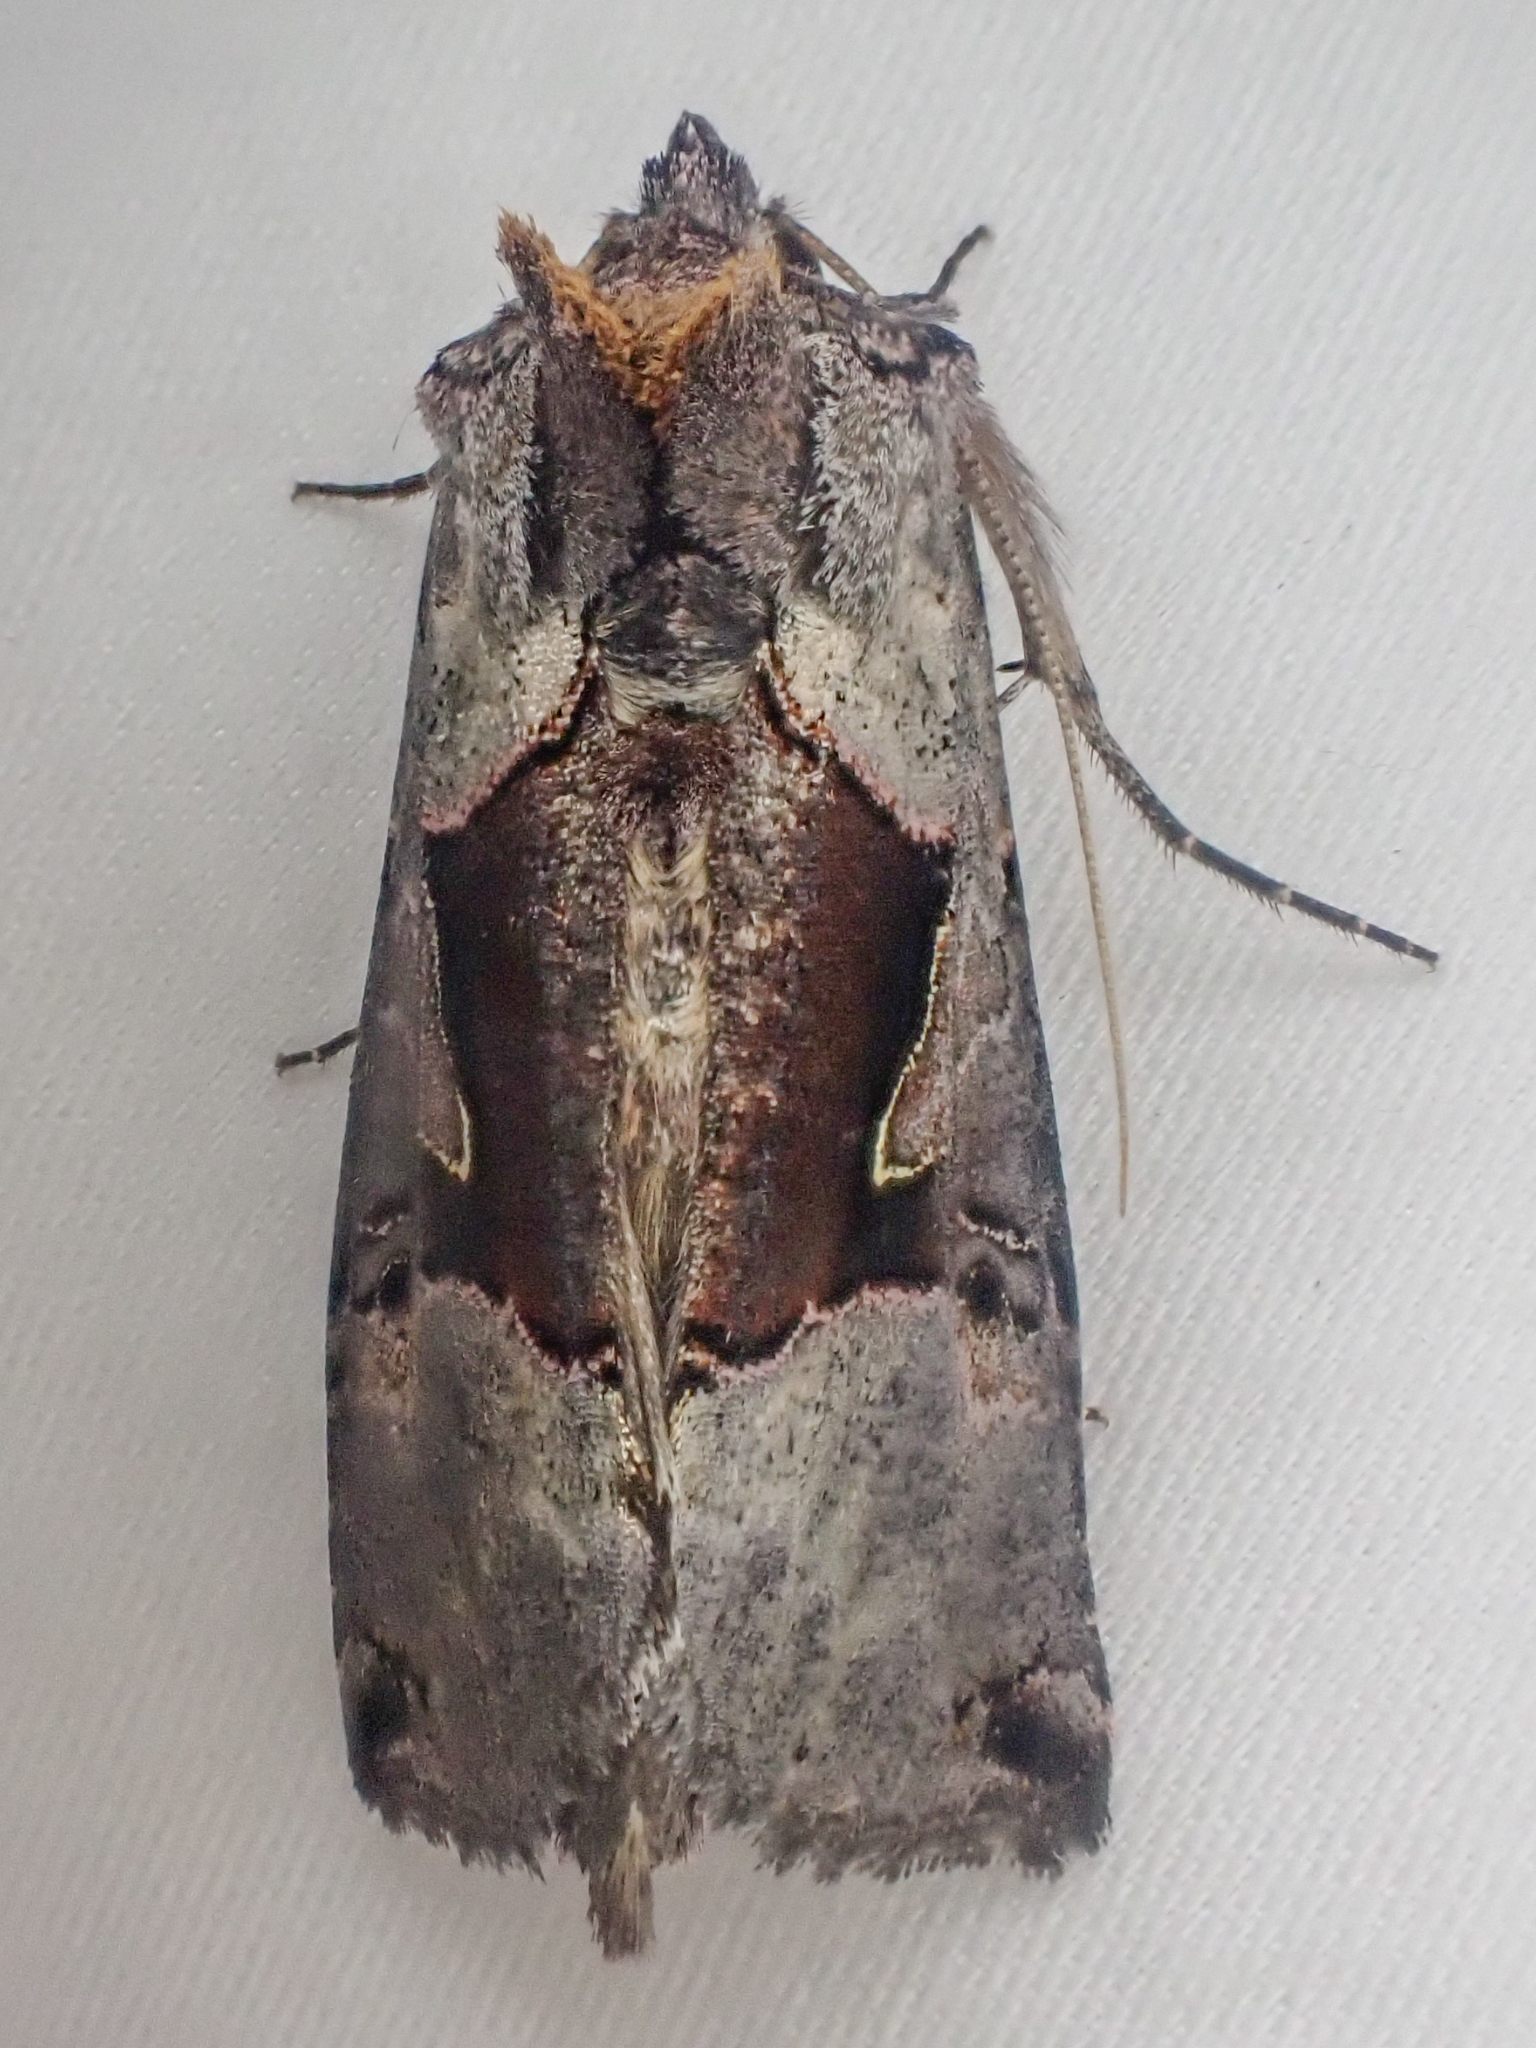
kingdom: Animalia
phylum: Arthropoda
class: Insecta
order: Lepidoptera
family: Noctuidae
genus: Autographa
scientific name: Autographa ampla
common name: Large looper moth
